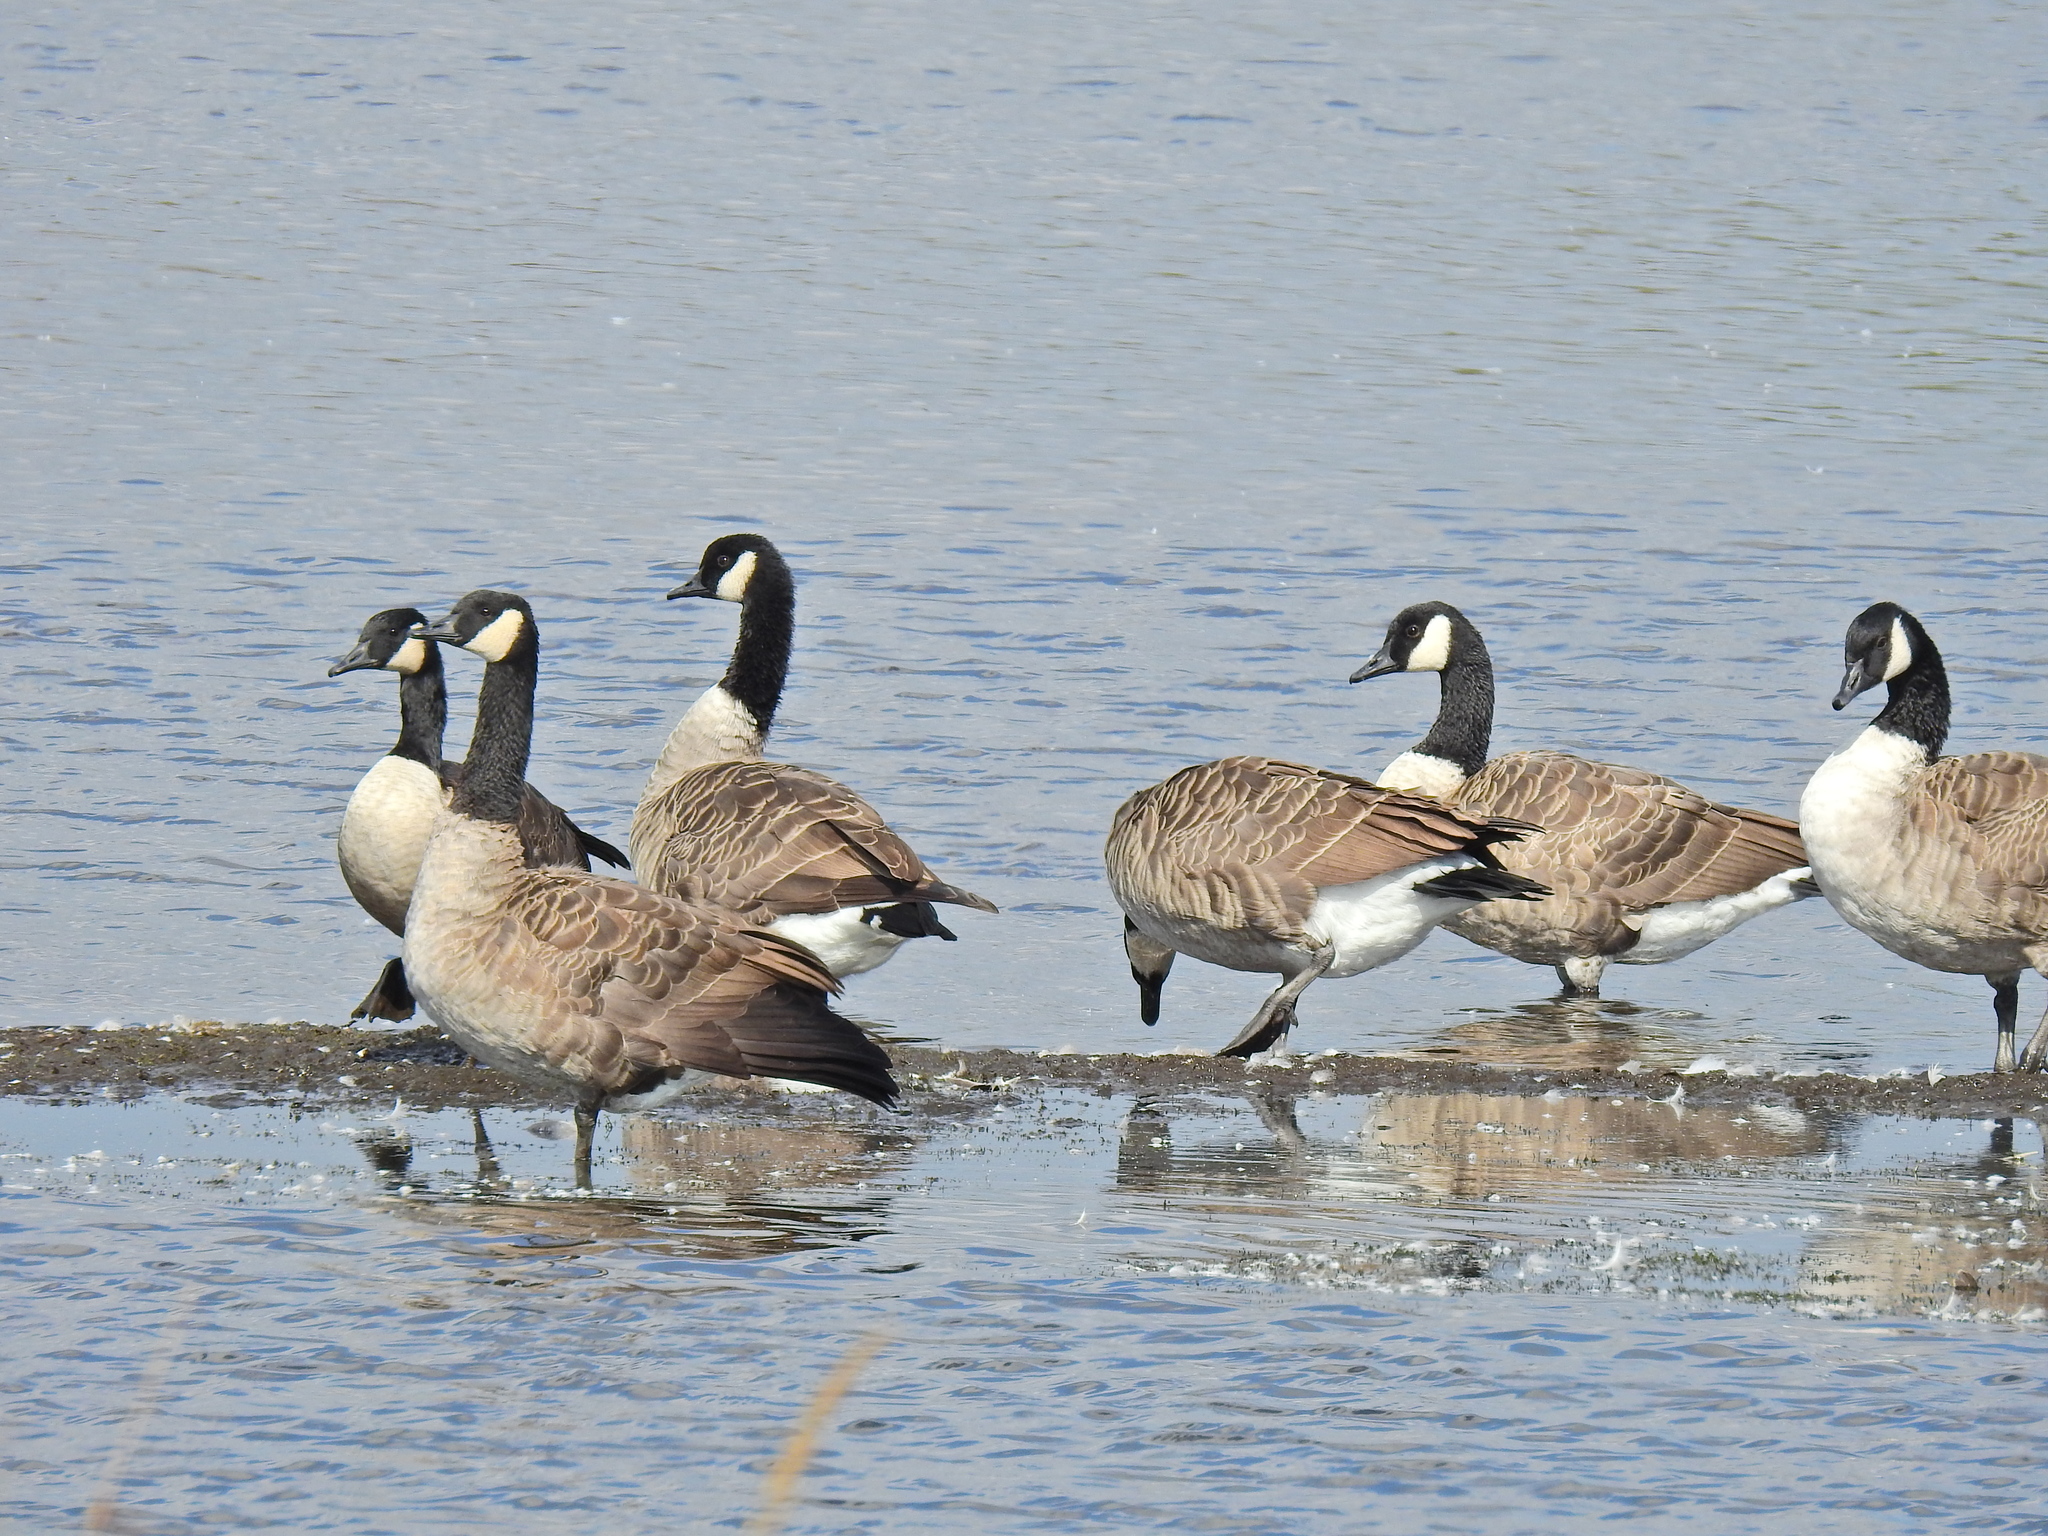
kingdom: Animalia
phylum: Chordata
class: Aves
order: Anseriformes
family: Anatidae
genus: Branta
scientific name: Branta canadensis
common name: Canada goose
